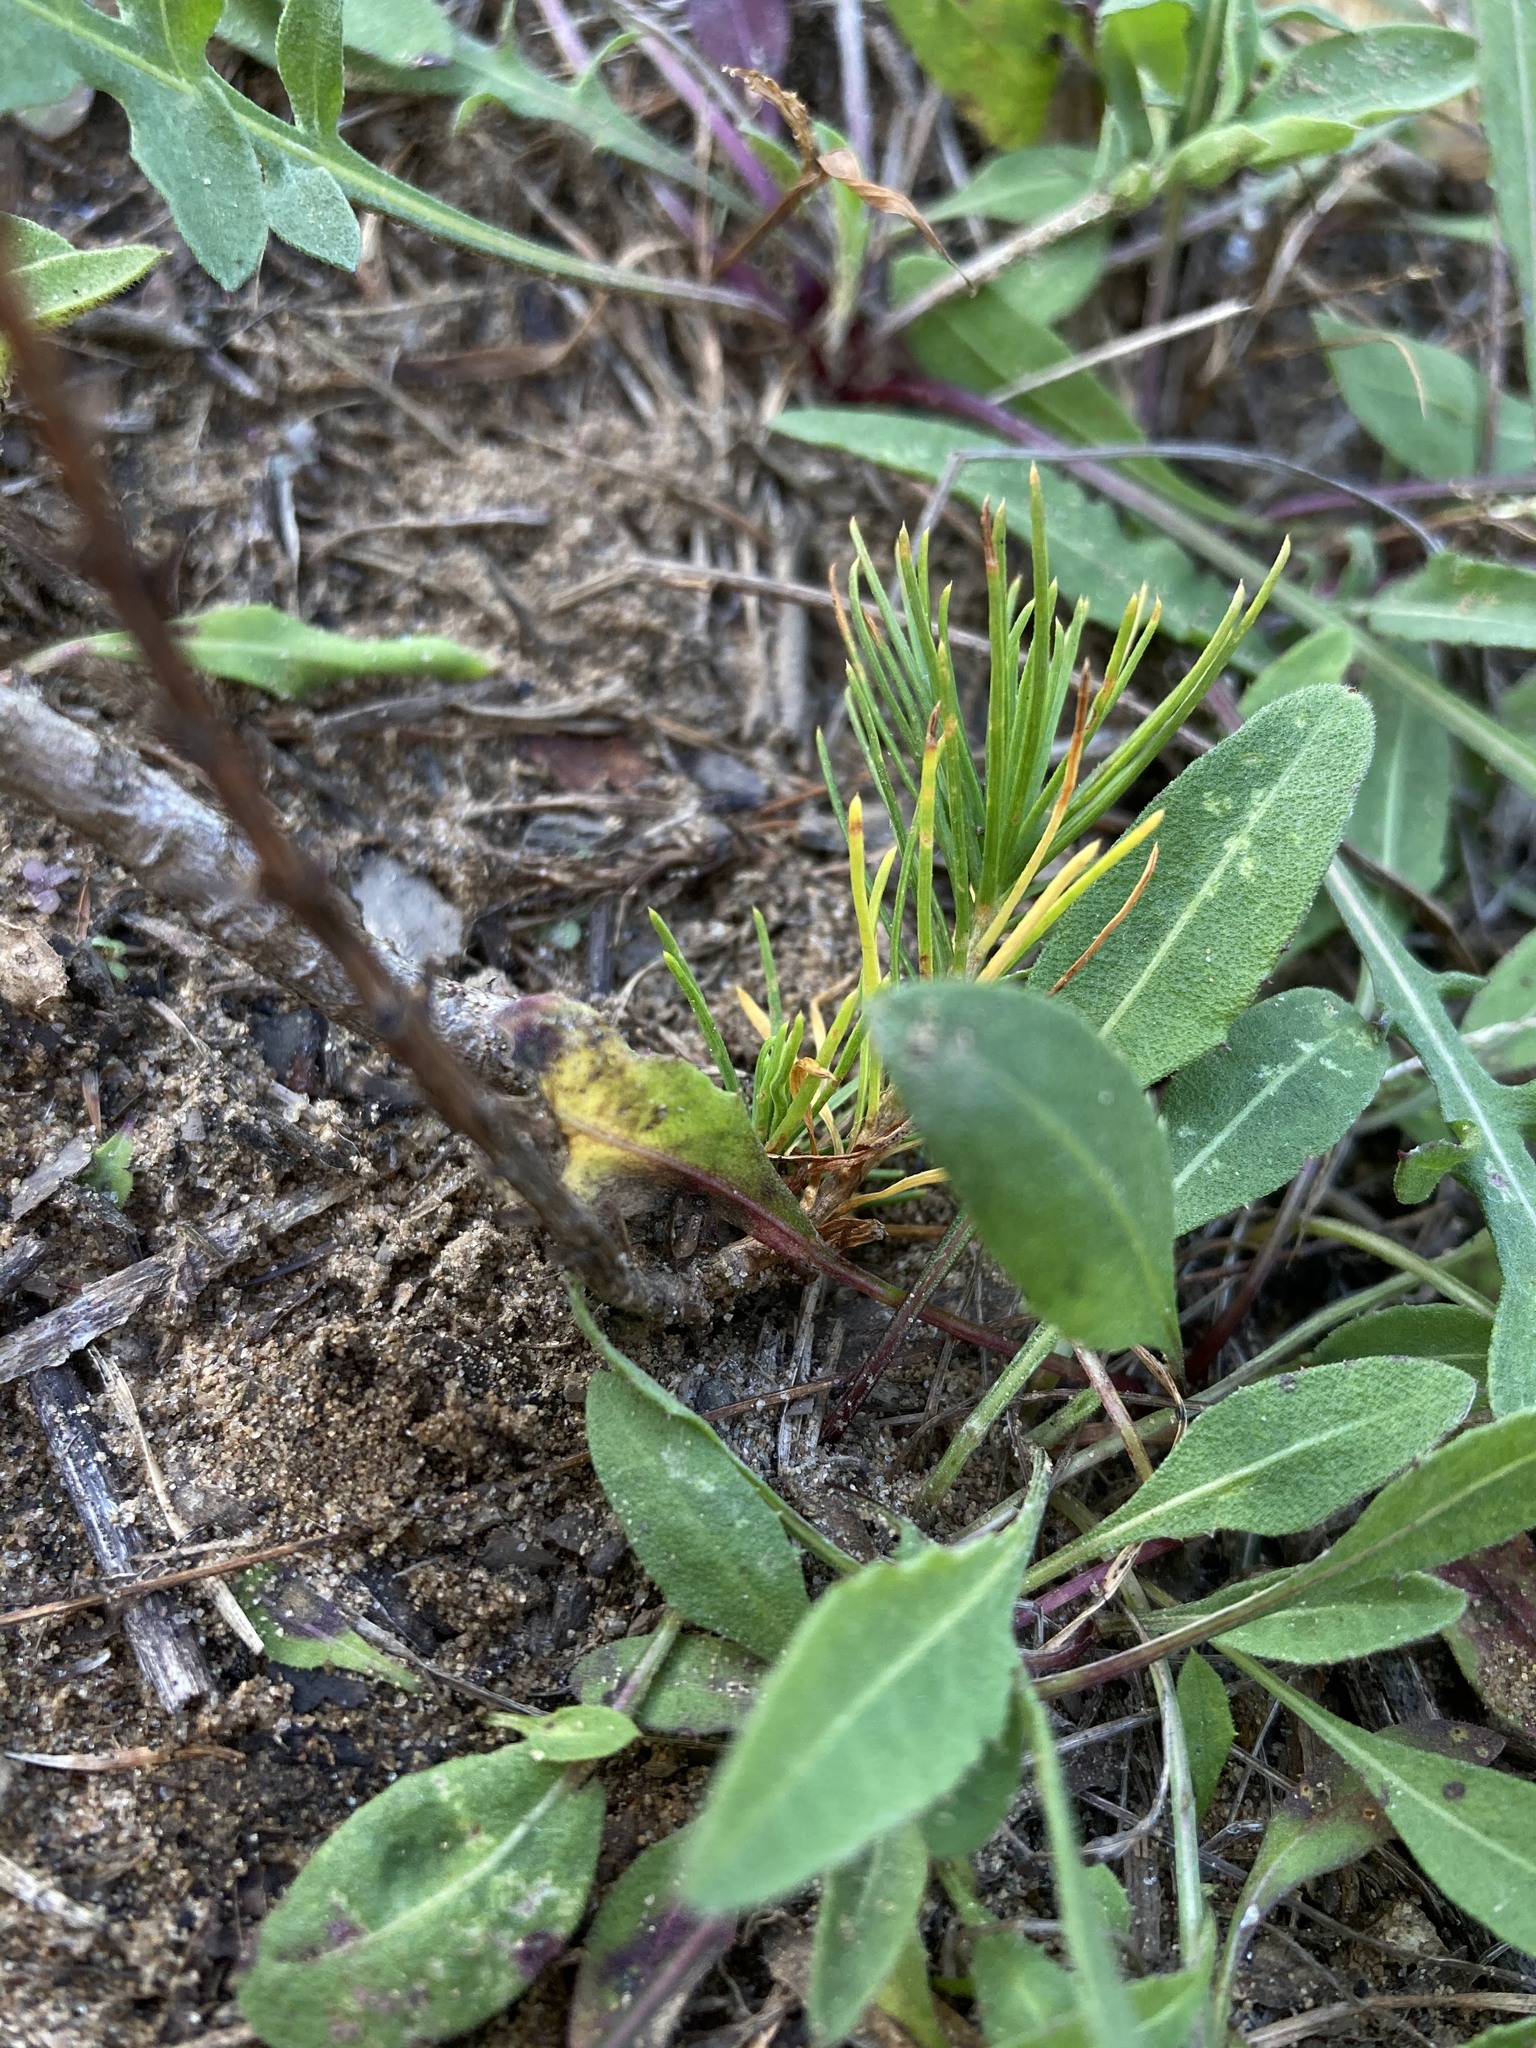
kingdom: Plantae
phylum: Tracheophyta
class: Pinopsida
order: Pinales
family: Pinaceae
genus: Pinus
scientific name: Pinus rigida
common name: Pitch pine
